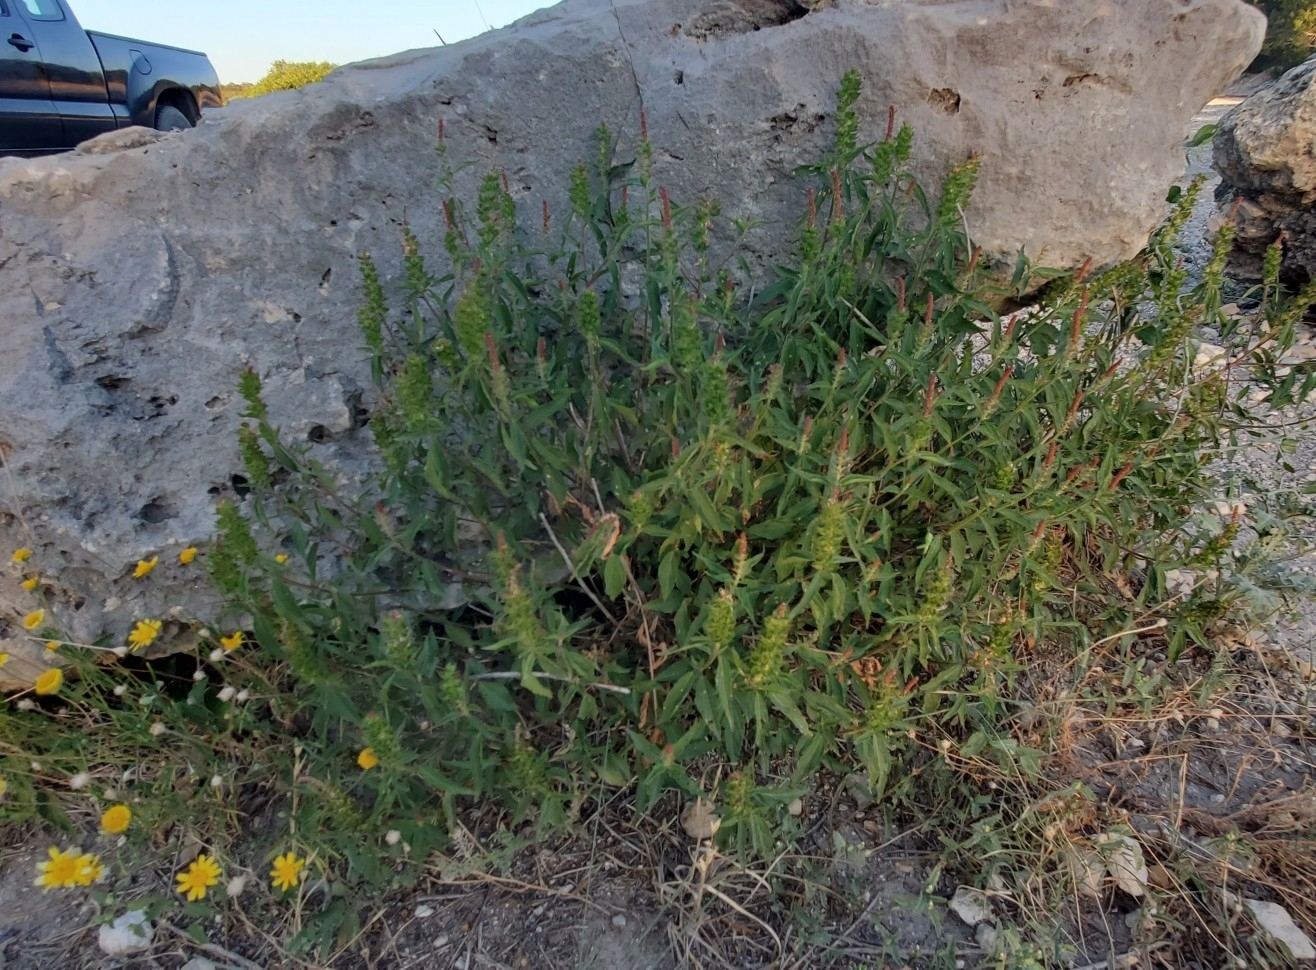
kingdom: Plantae
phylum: Tracheophyta
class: Magnoliopsida
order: Malpighiales
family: Euphorbiaceae
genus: Acalypha
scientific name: Acalypha phleoides
